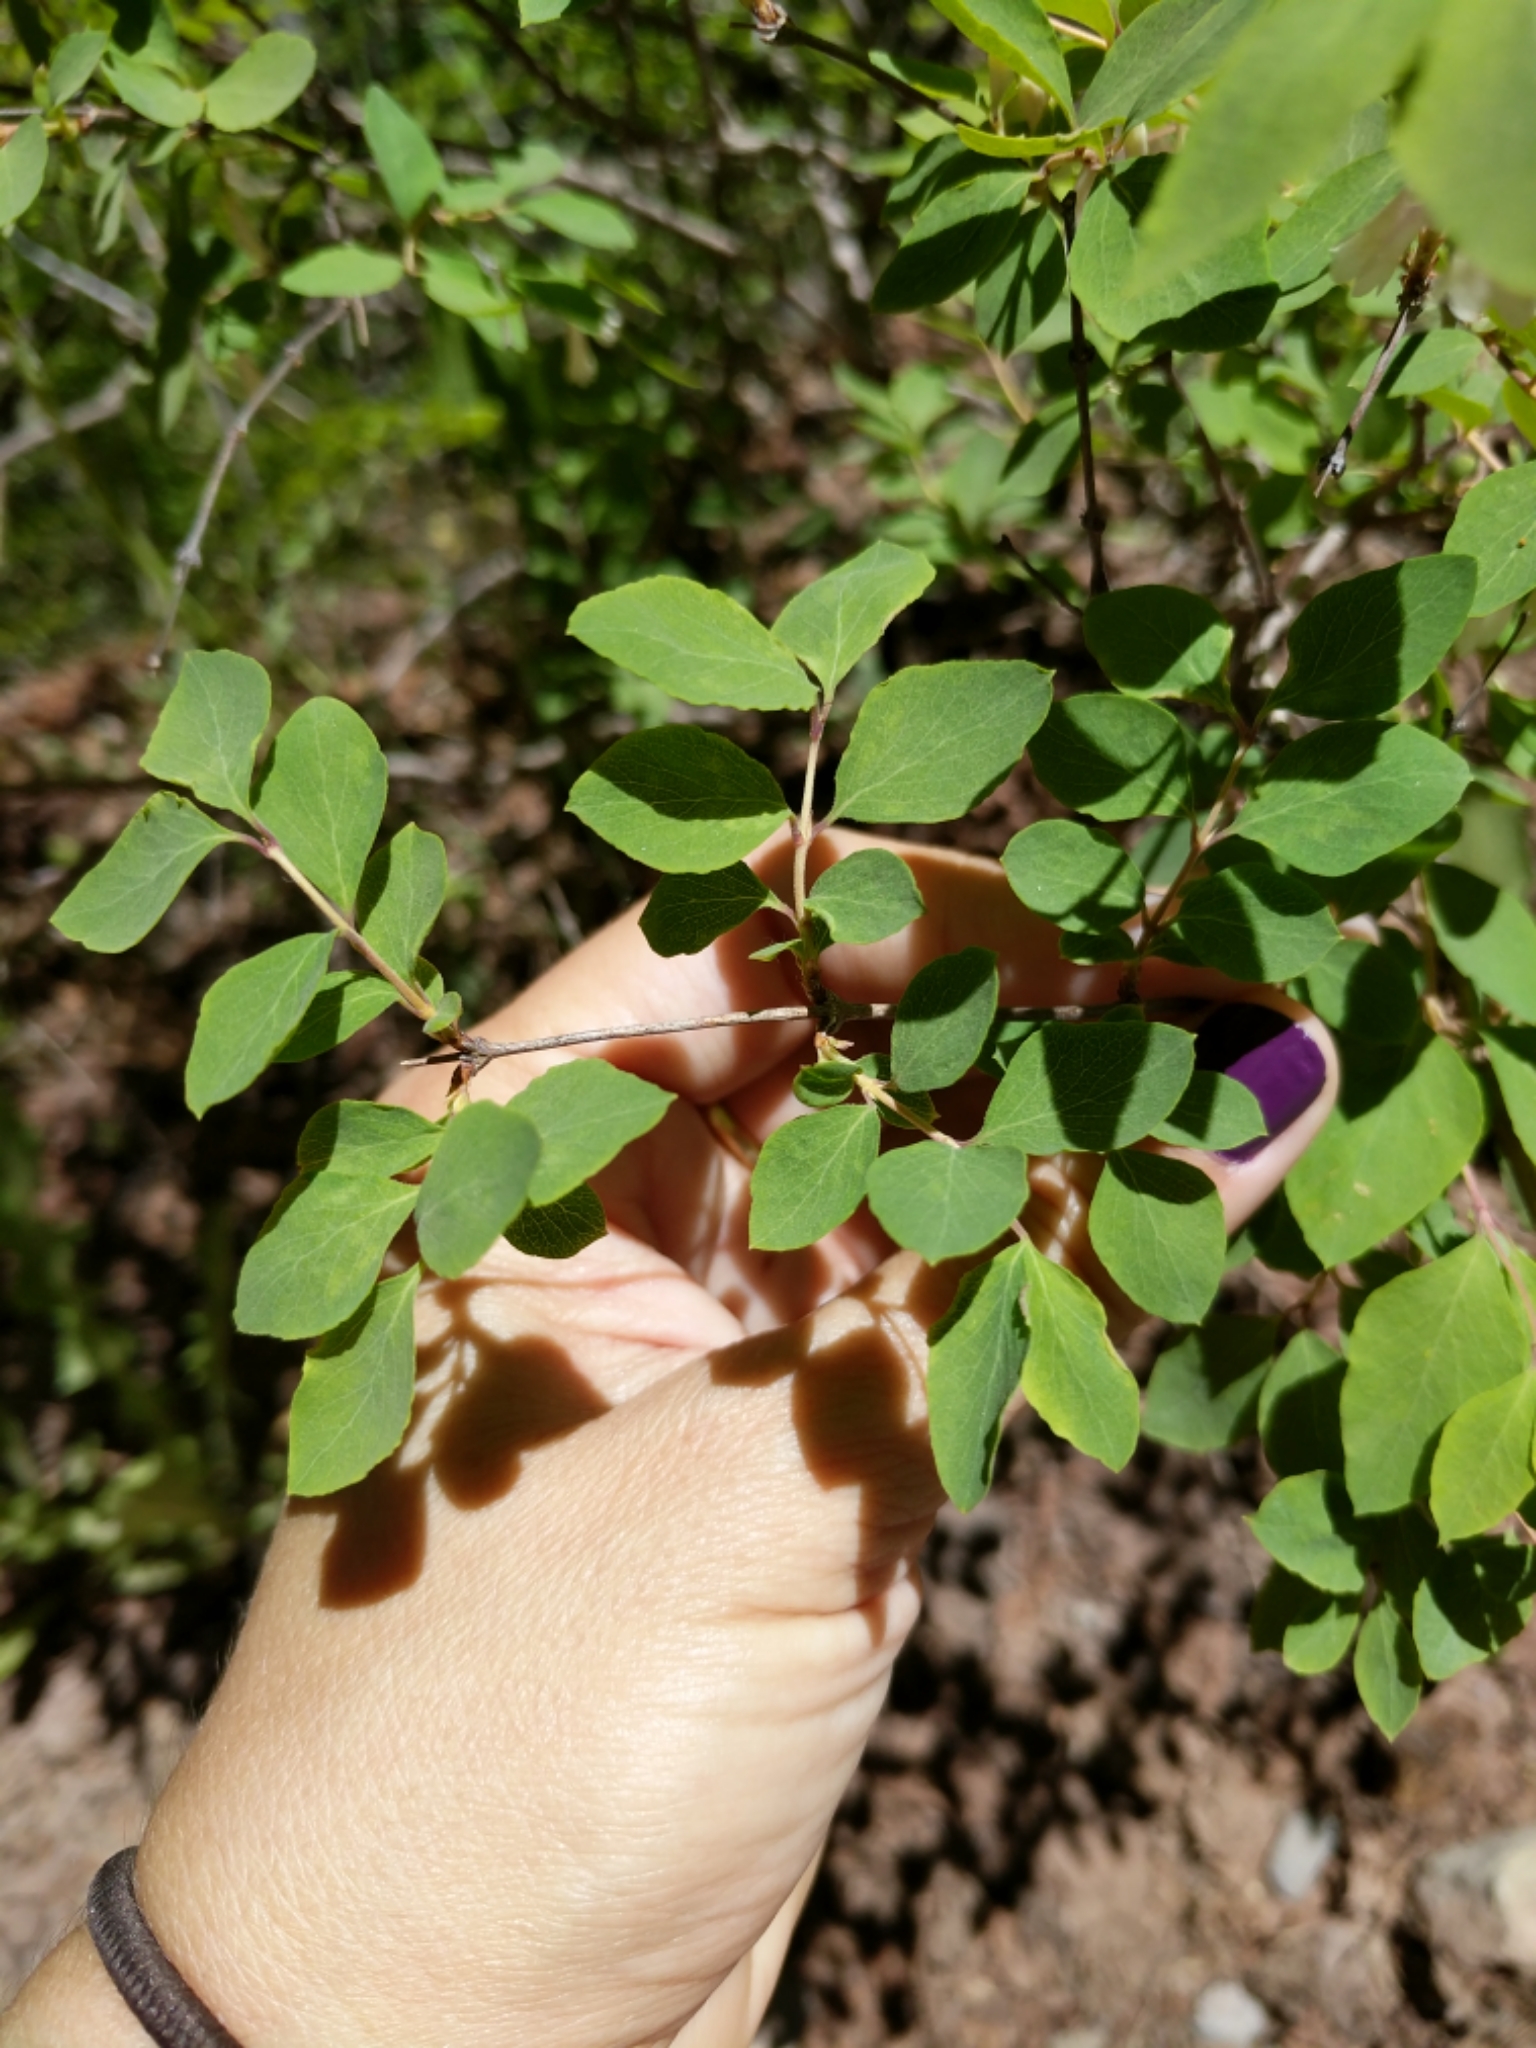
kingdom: Plantae
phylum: Tracheophyta
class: Magnoliopsida
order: Dipsacales
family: Caprifoliaceae
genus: Symphoricarpos
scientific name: Symphoricarpos rotundifolius
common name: Round-leaved snowberry
